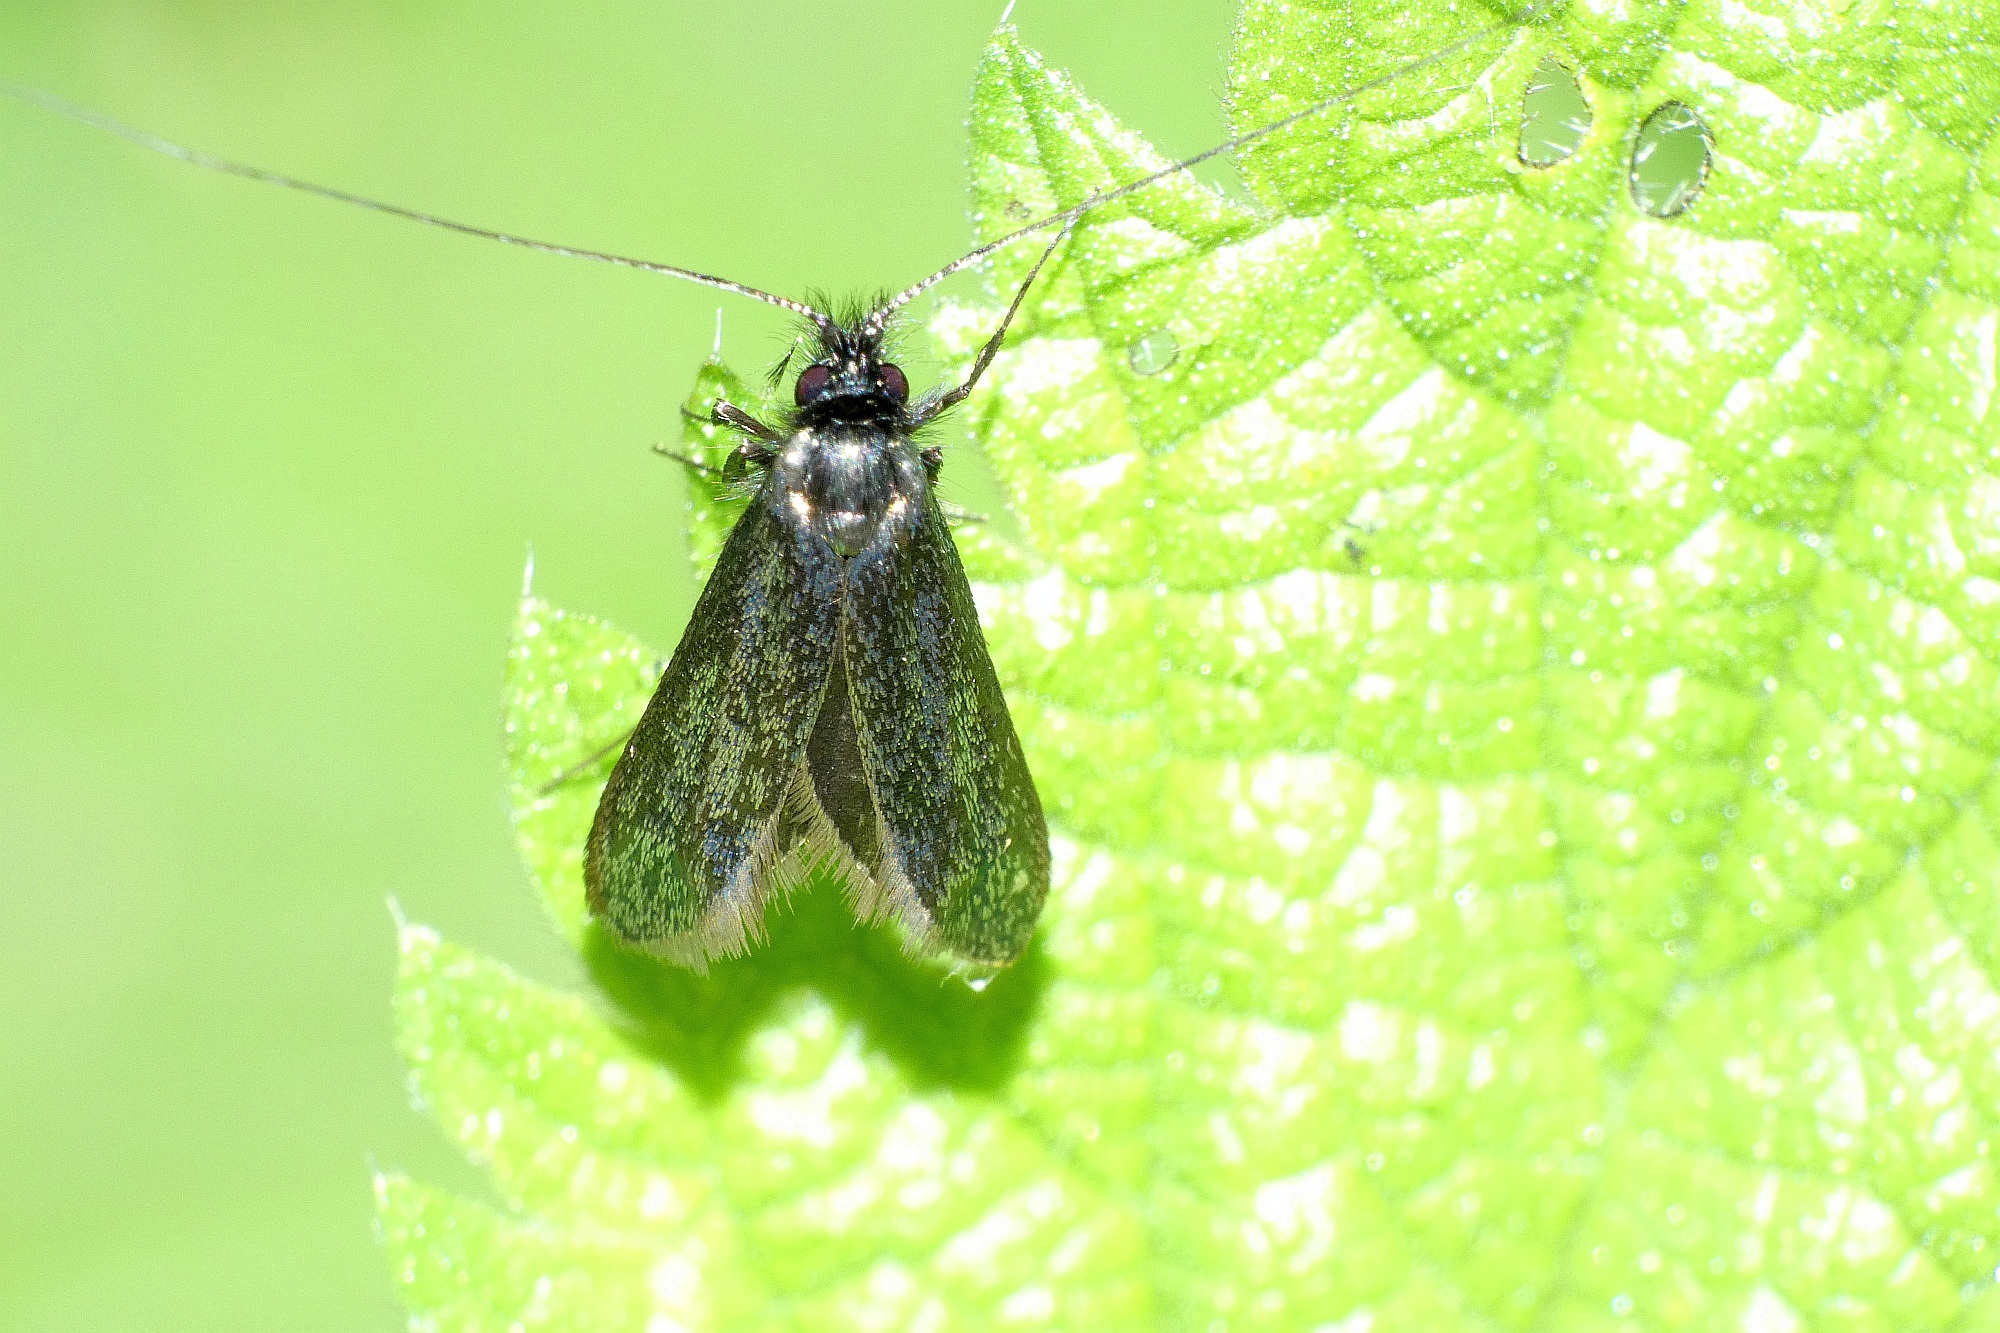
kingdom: Animalia
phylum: Arthropoda
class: Insecta
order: Lepidoptera
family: Adelidae
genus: Adela
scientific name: Adela viridella
